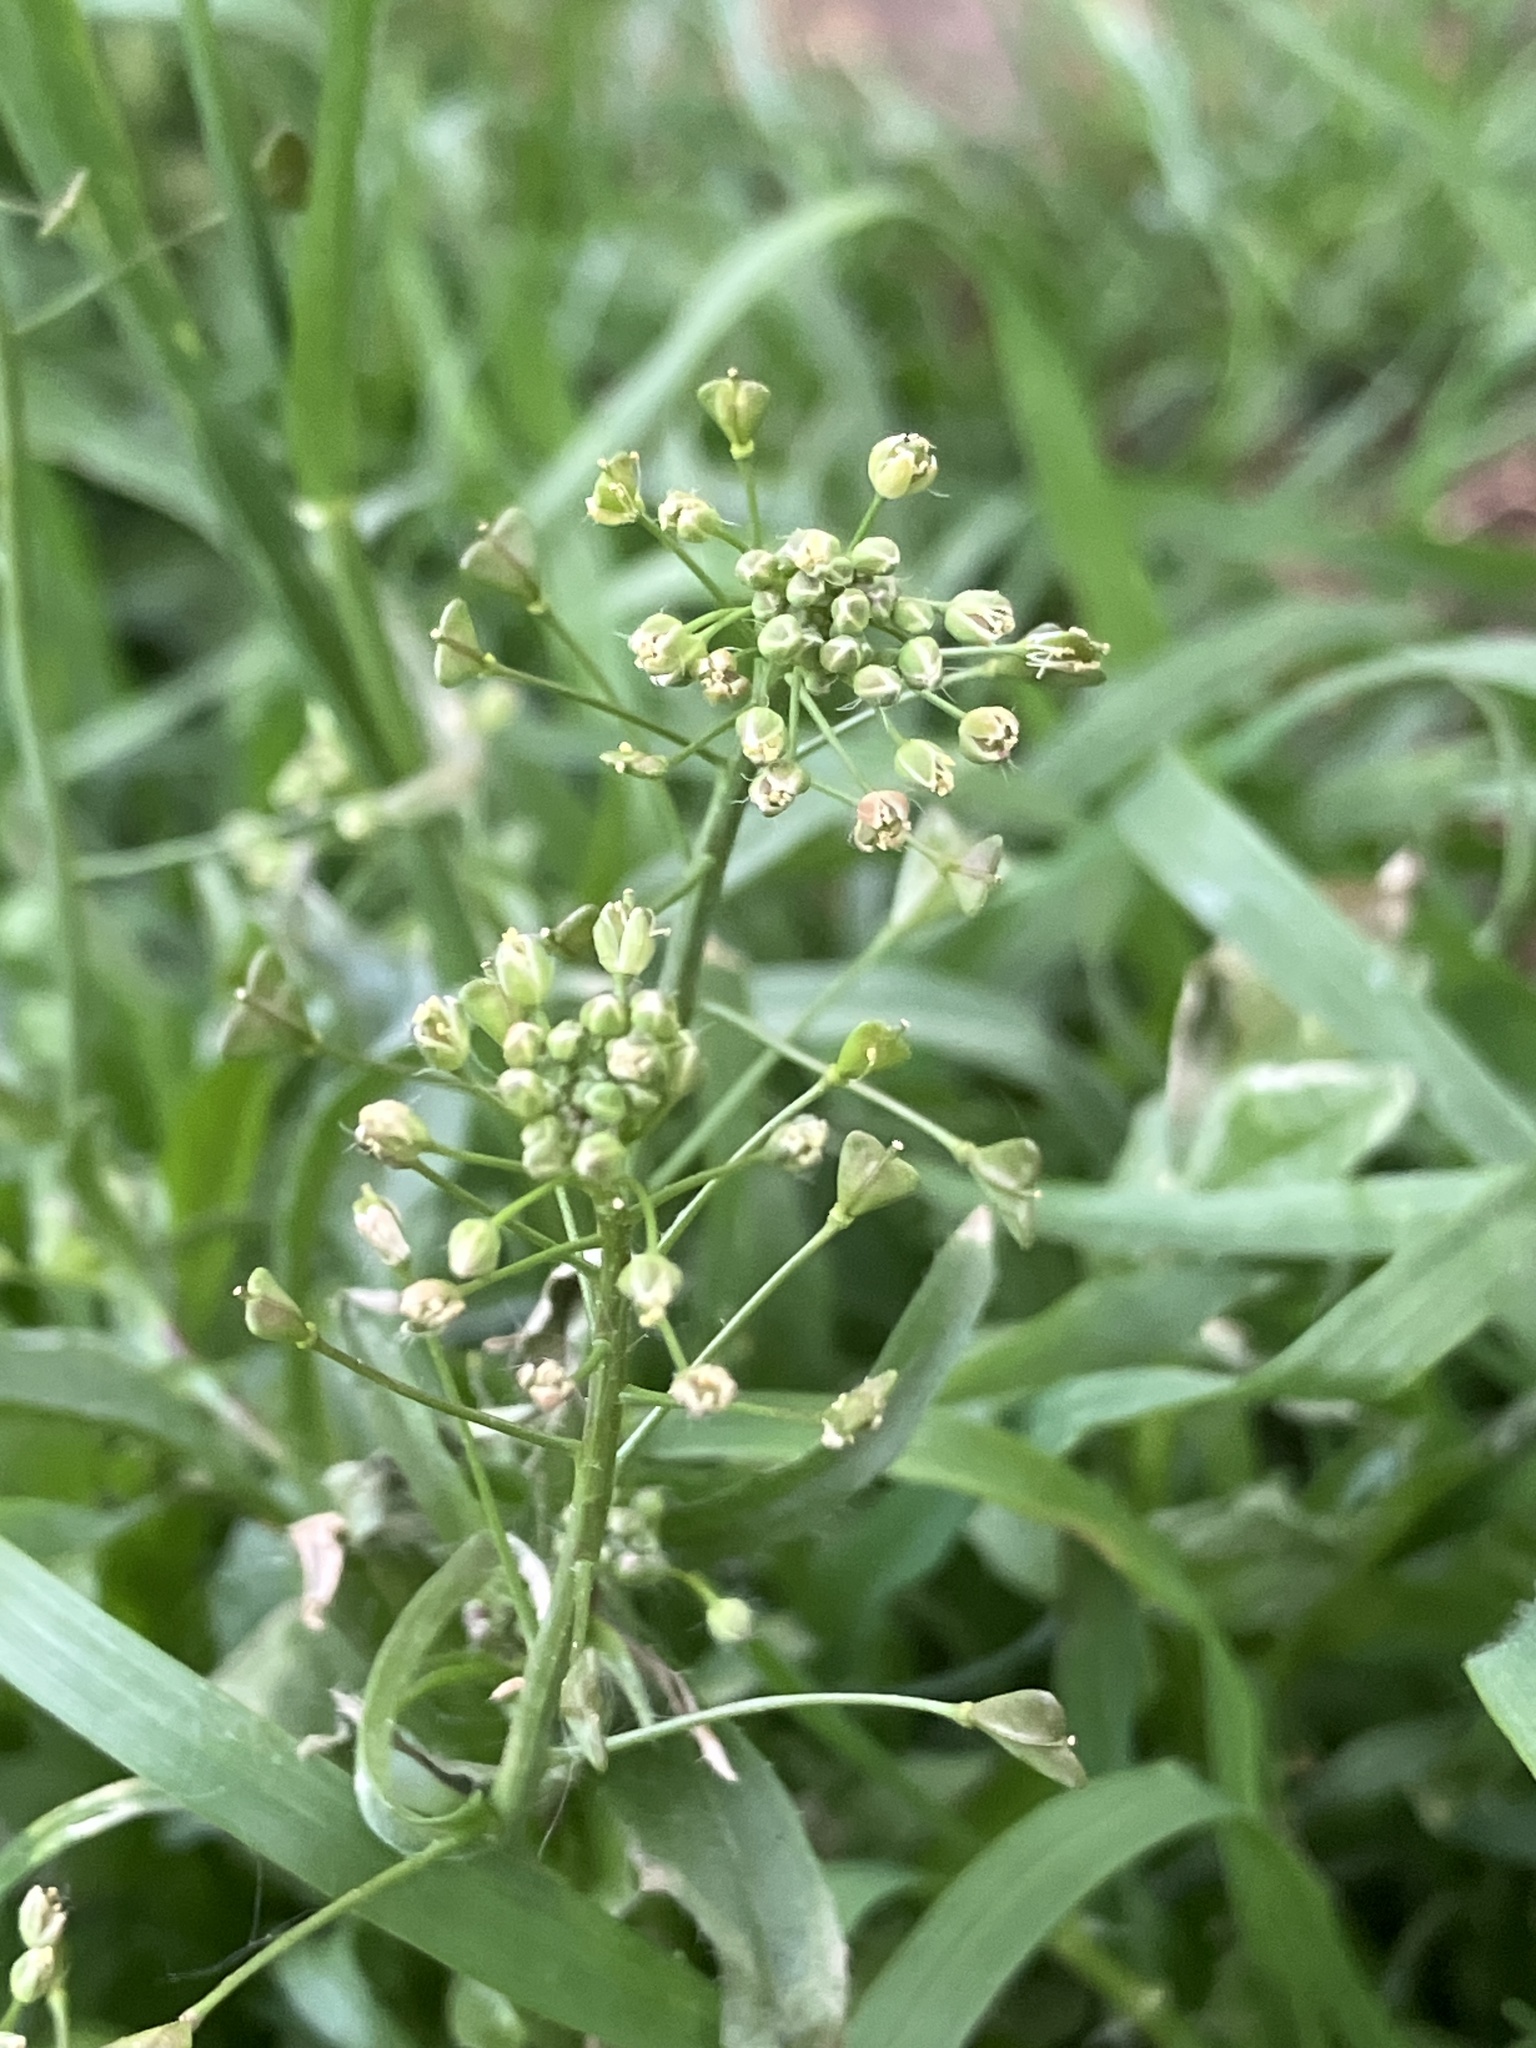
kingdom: Plantae
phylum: Tracheophyta
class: Magnoliopsida
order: Brassicales
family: Brassicaceae
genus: Capsella
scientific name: Capsella bursa-pastoris
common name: Shepherd's purse
